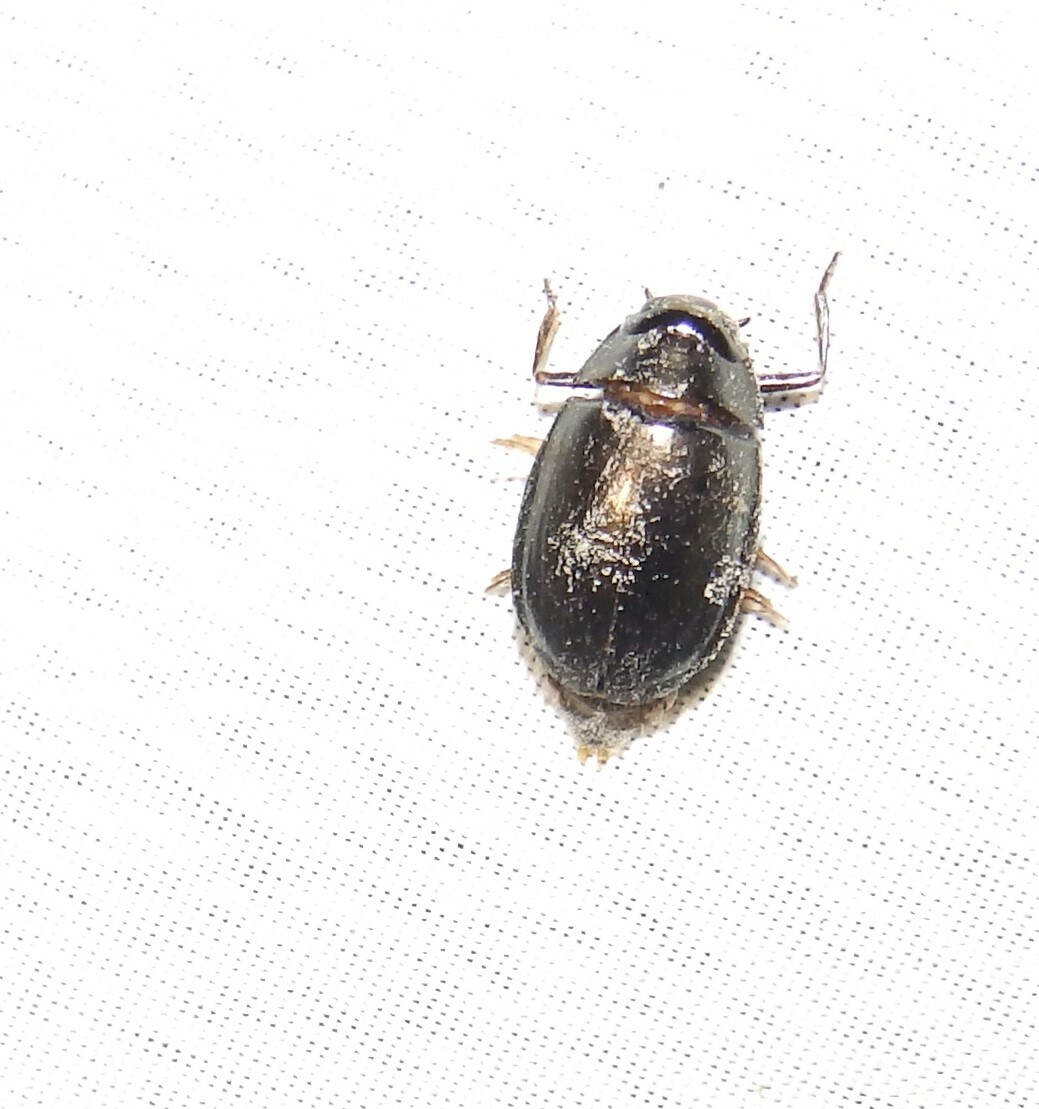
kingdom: Animalia
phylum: Arthropoda
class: Insecta
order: Coleoptera
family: Gyrinidae
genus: Dineutus
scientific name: Dineutus
